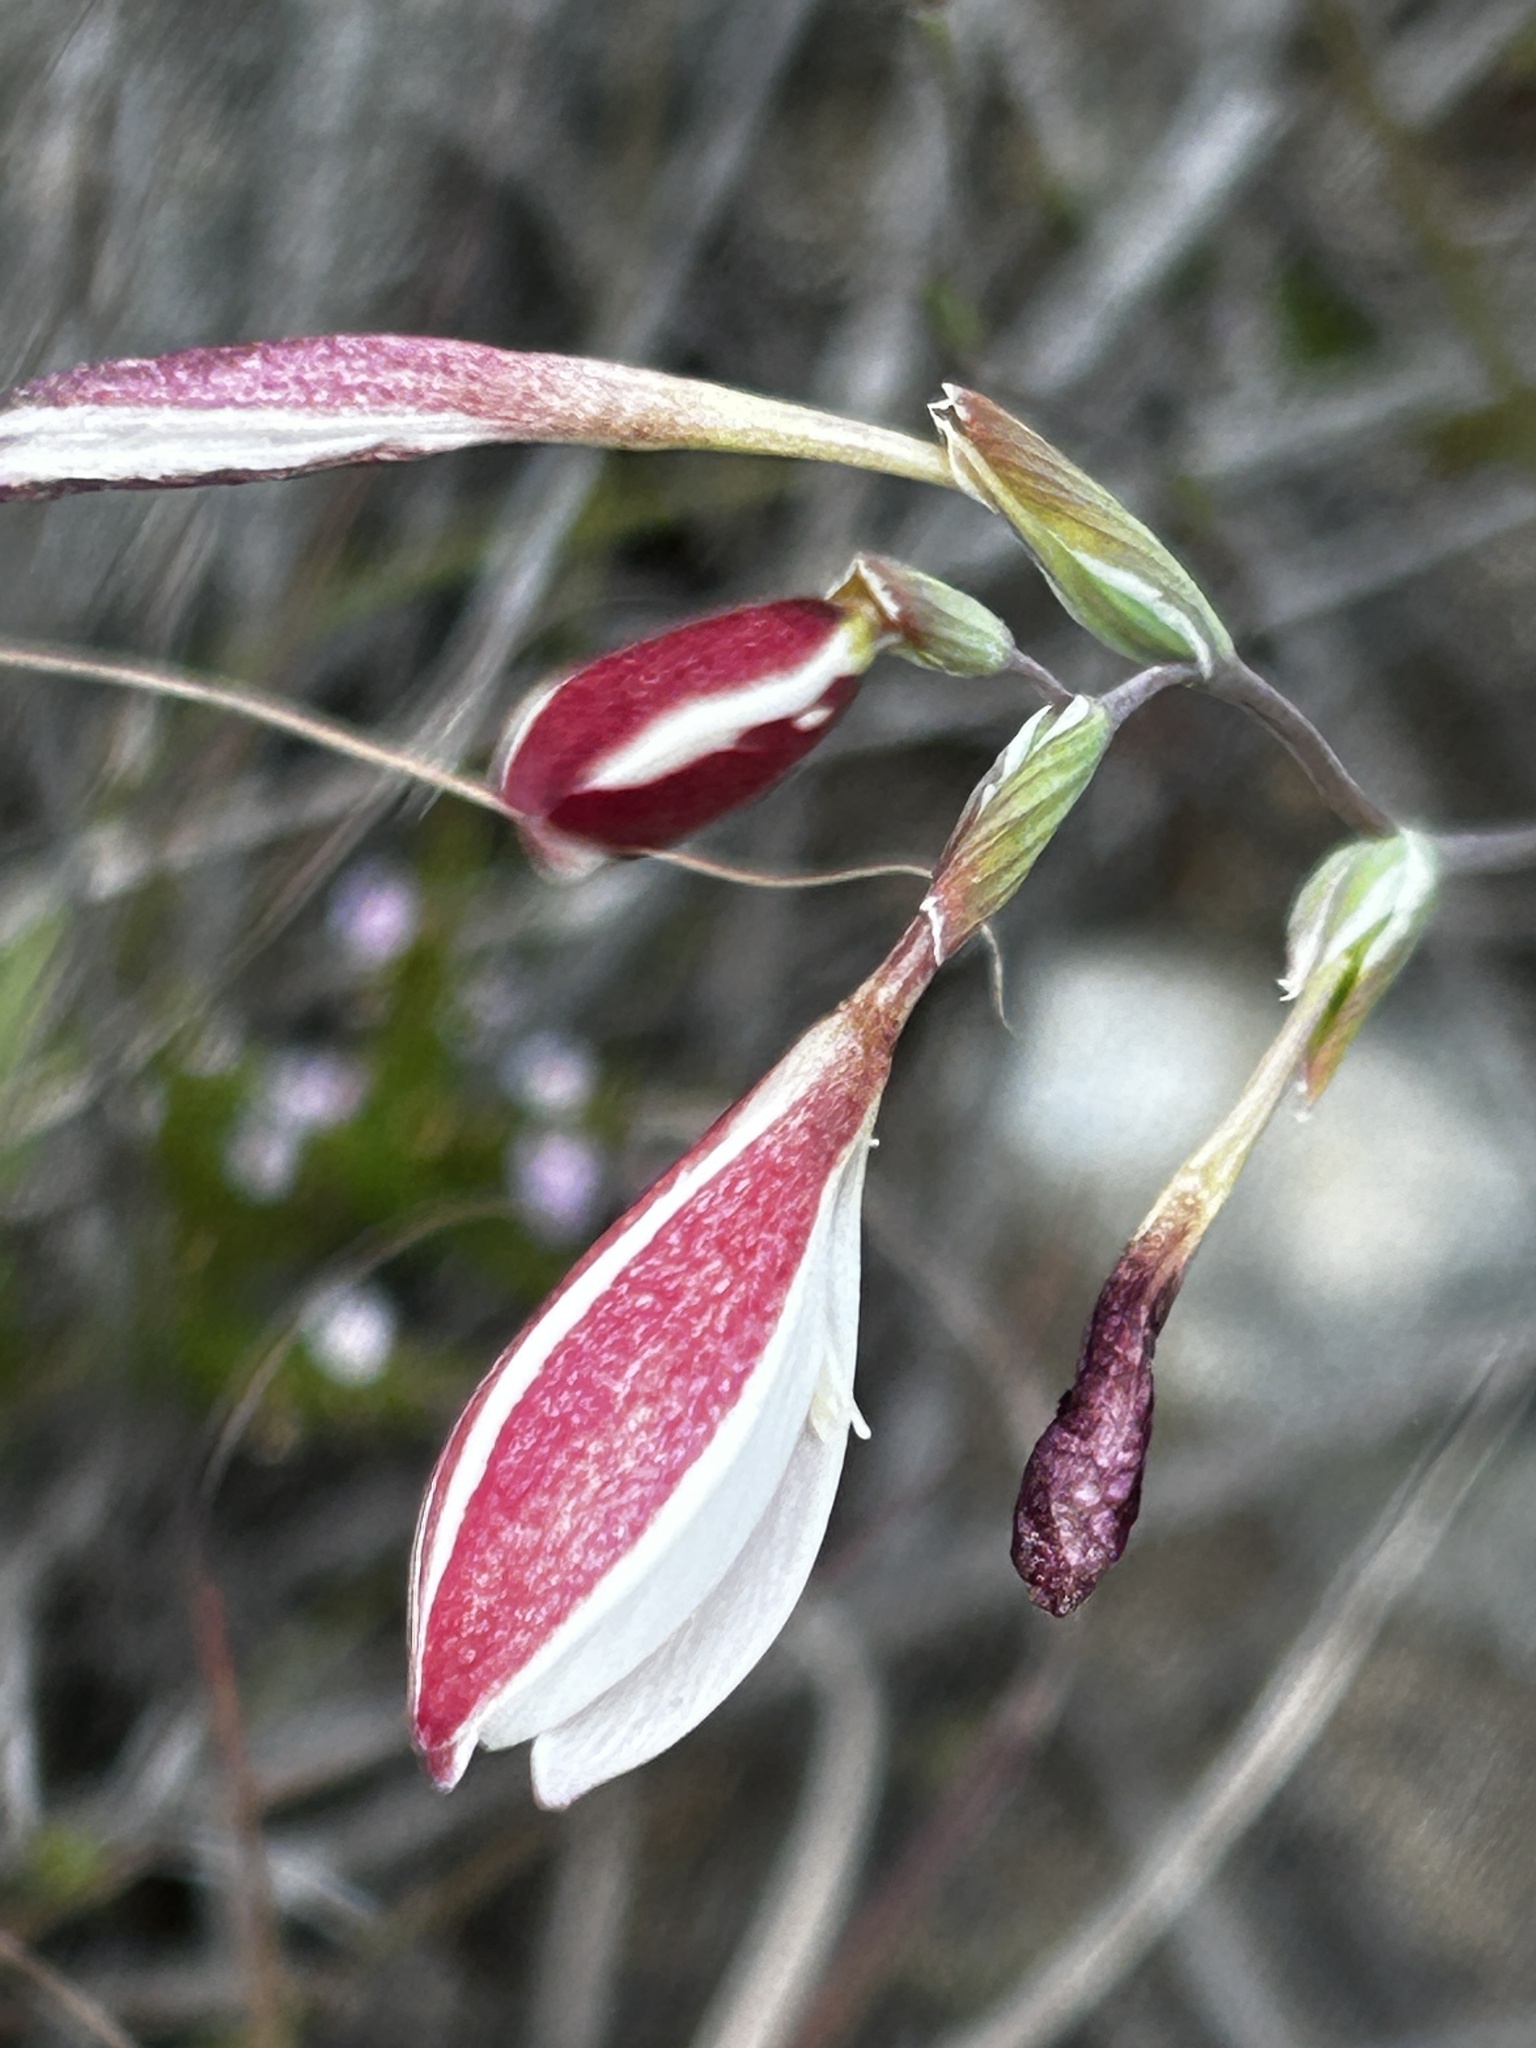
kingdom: Plantae
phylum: Tracheophyta
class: Liliopsida
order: Asparagales
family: Iridaceae
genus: Hesperantha
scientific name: Hesperantha falcata
